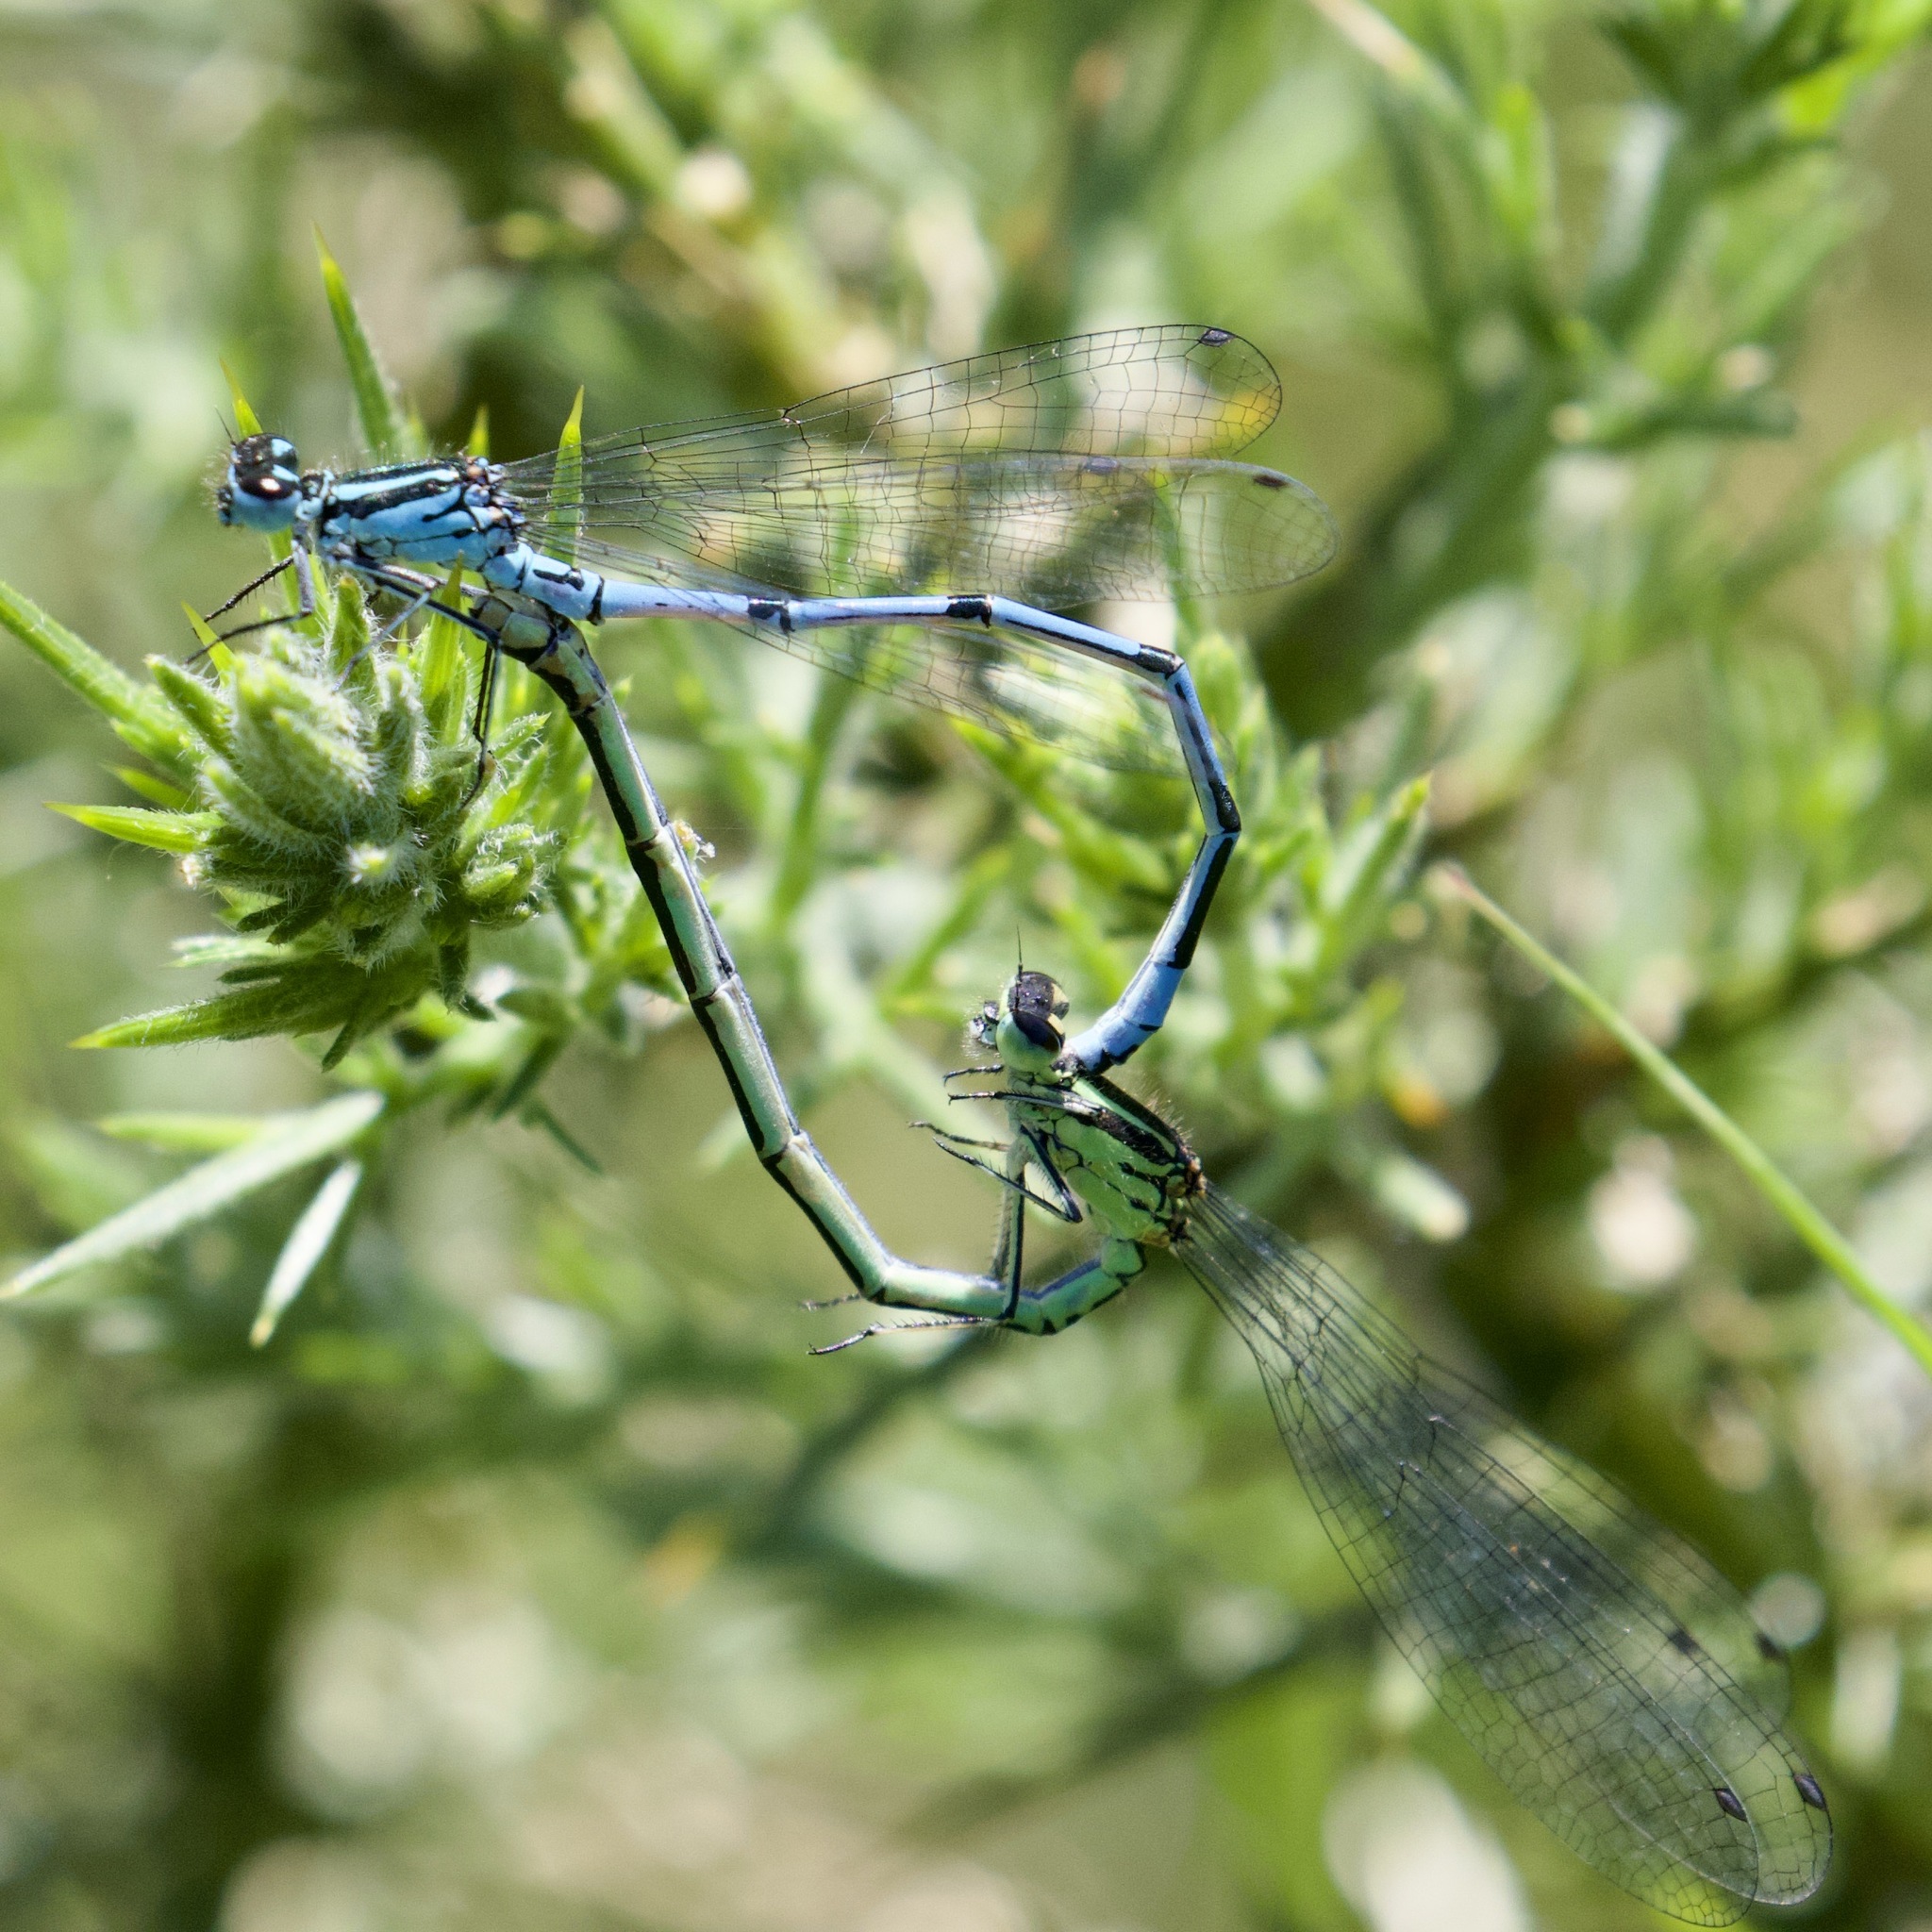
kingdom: Animalia
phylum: Arthropoda
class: Insecta
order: Odonata
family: Coenagrionidae
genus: Coenagrion
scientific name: Coenagrion puella
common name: Azure damselfly
